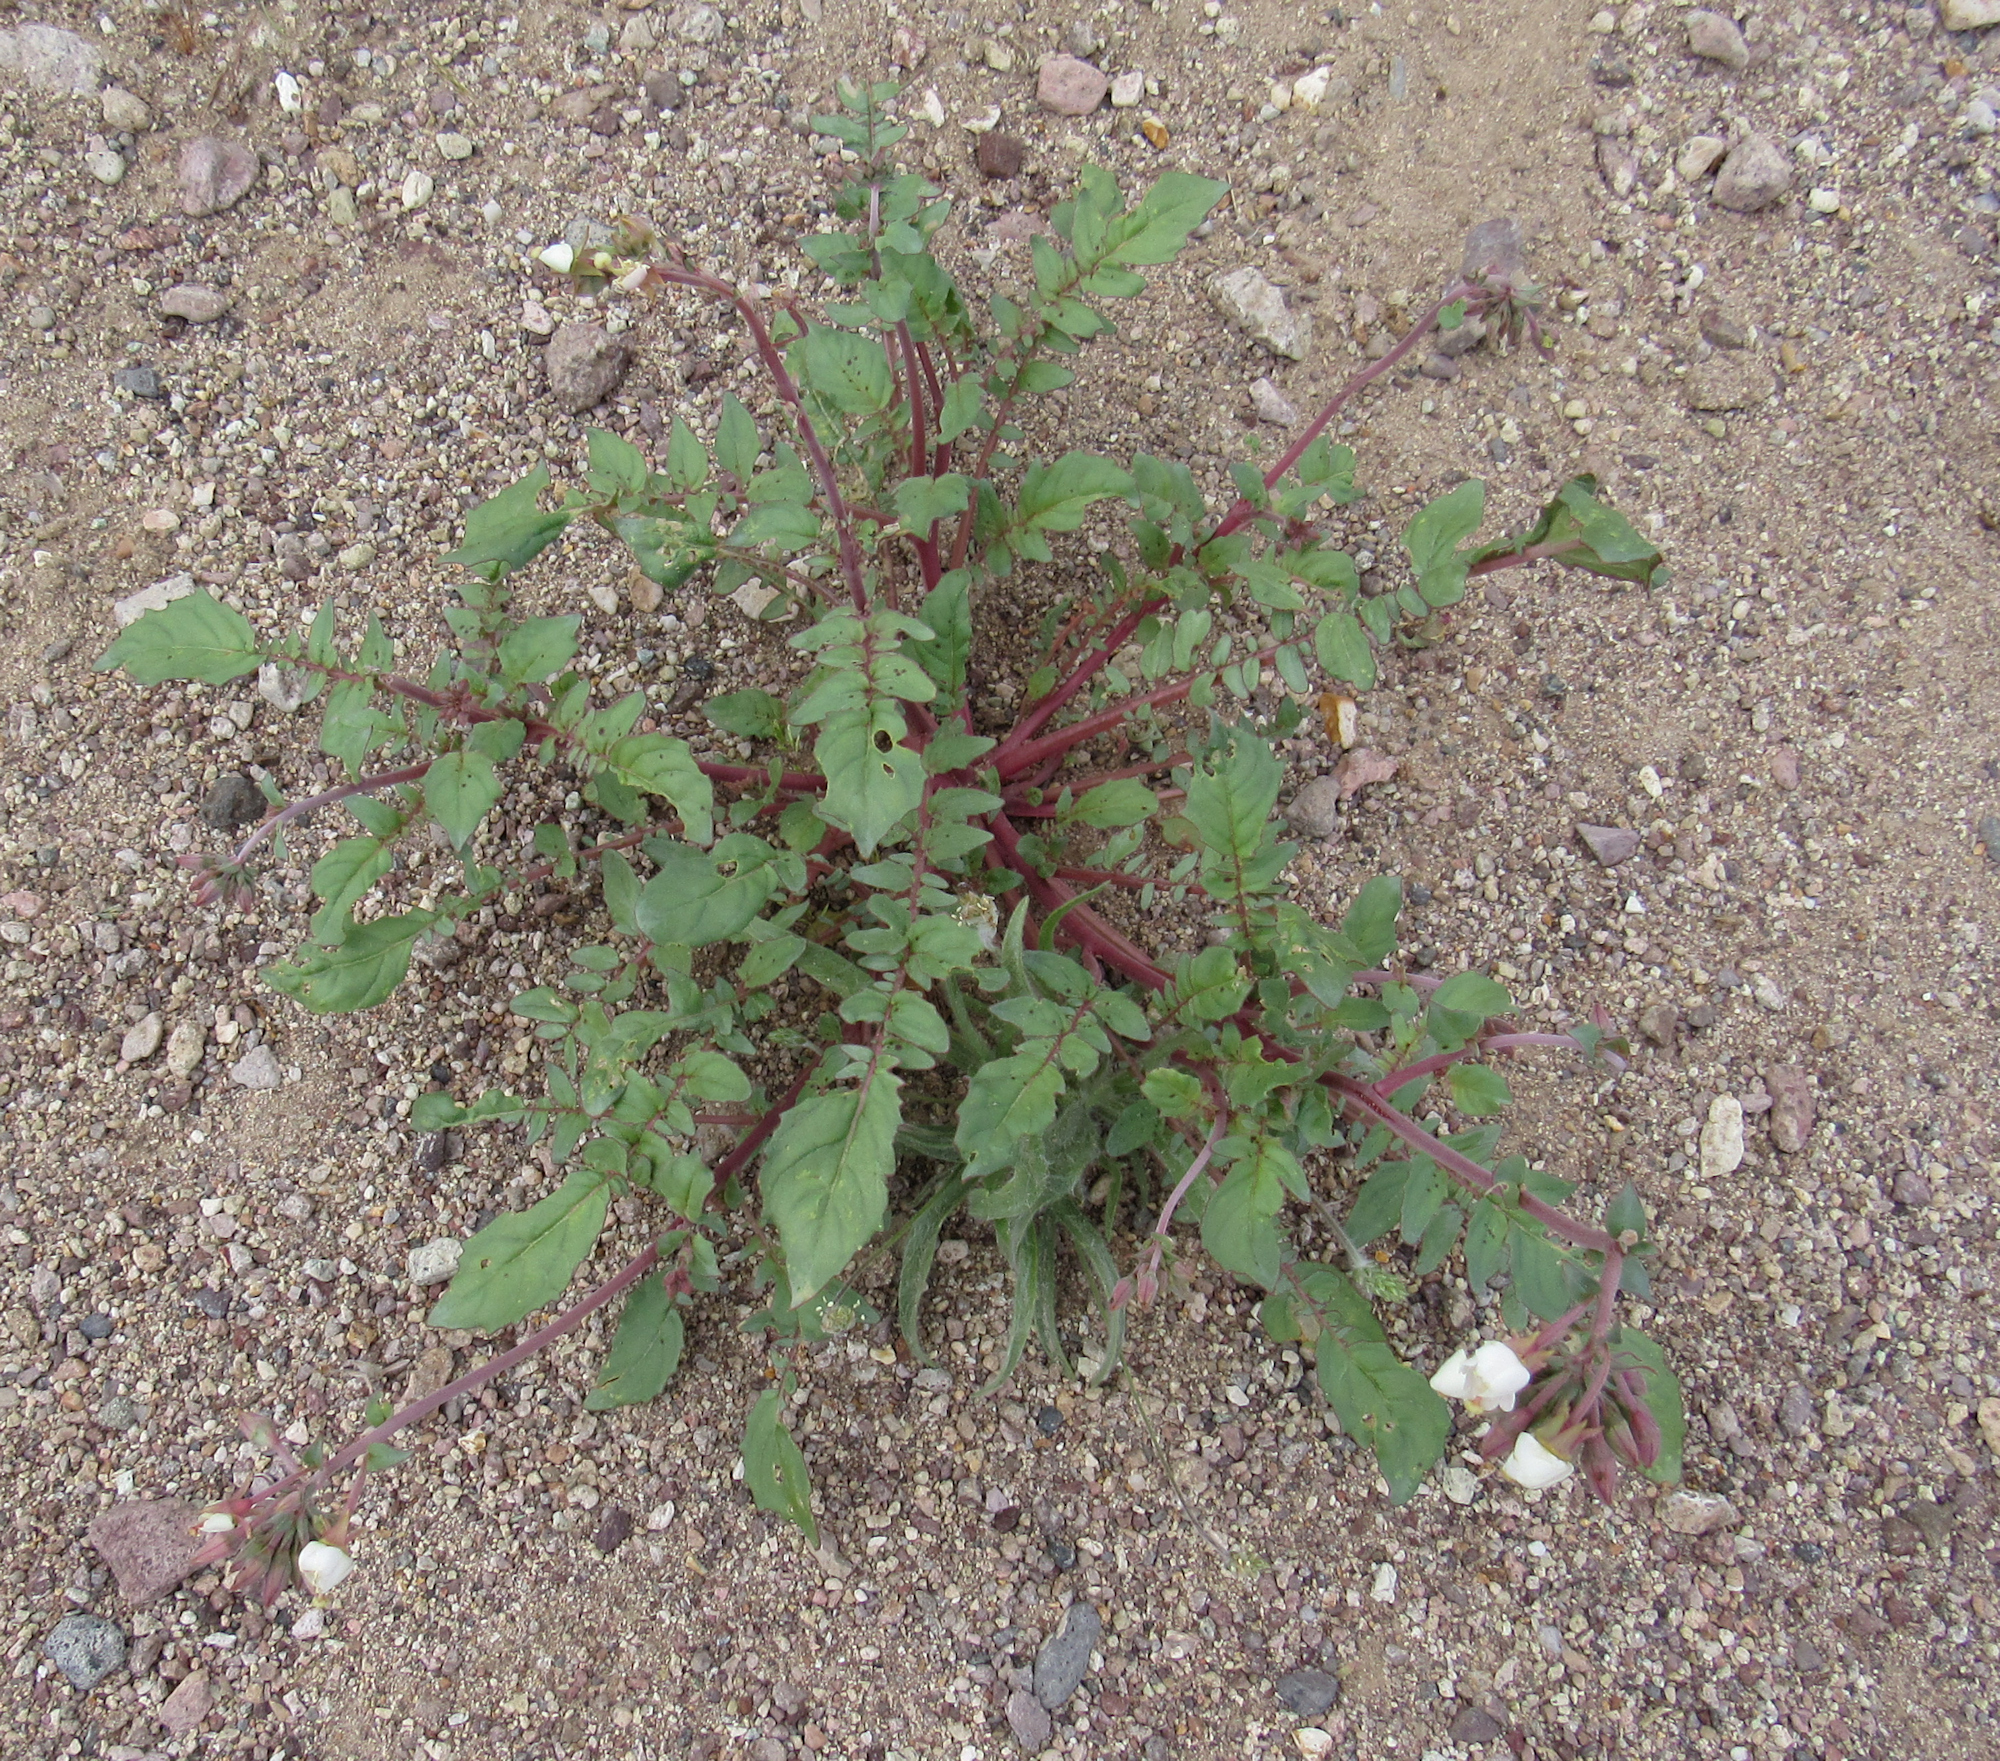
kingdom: Plantae
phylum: Tracheophyta
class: Magnoliopsida
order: Myrtales
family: Onagraceae
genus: Chylismia
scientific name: Chylismia claviformis
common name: Browneyes
